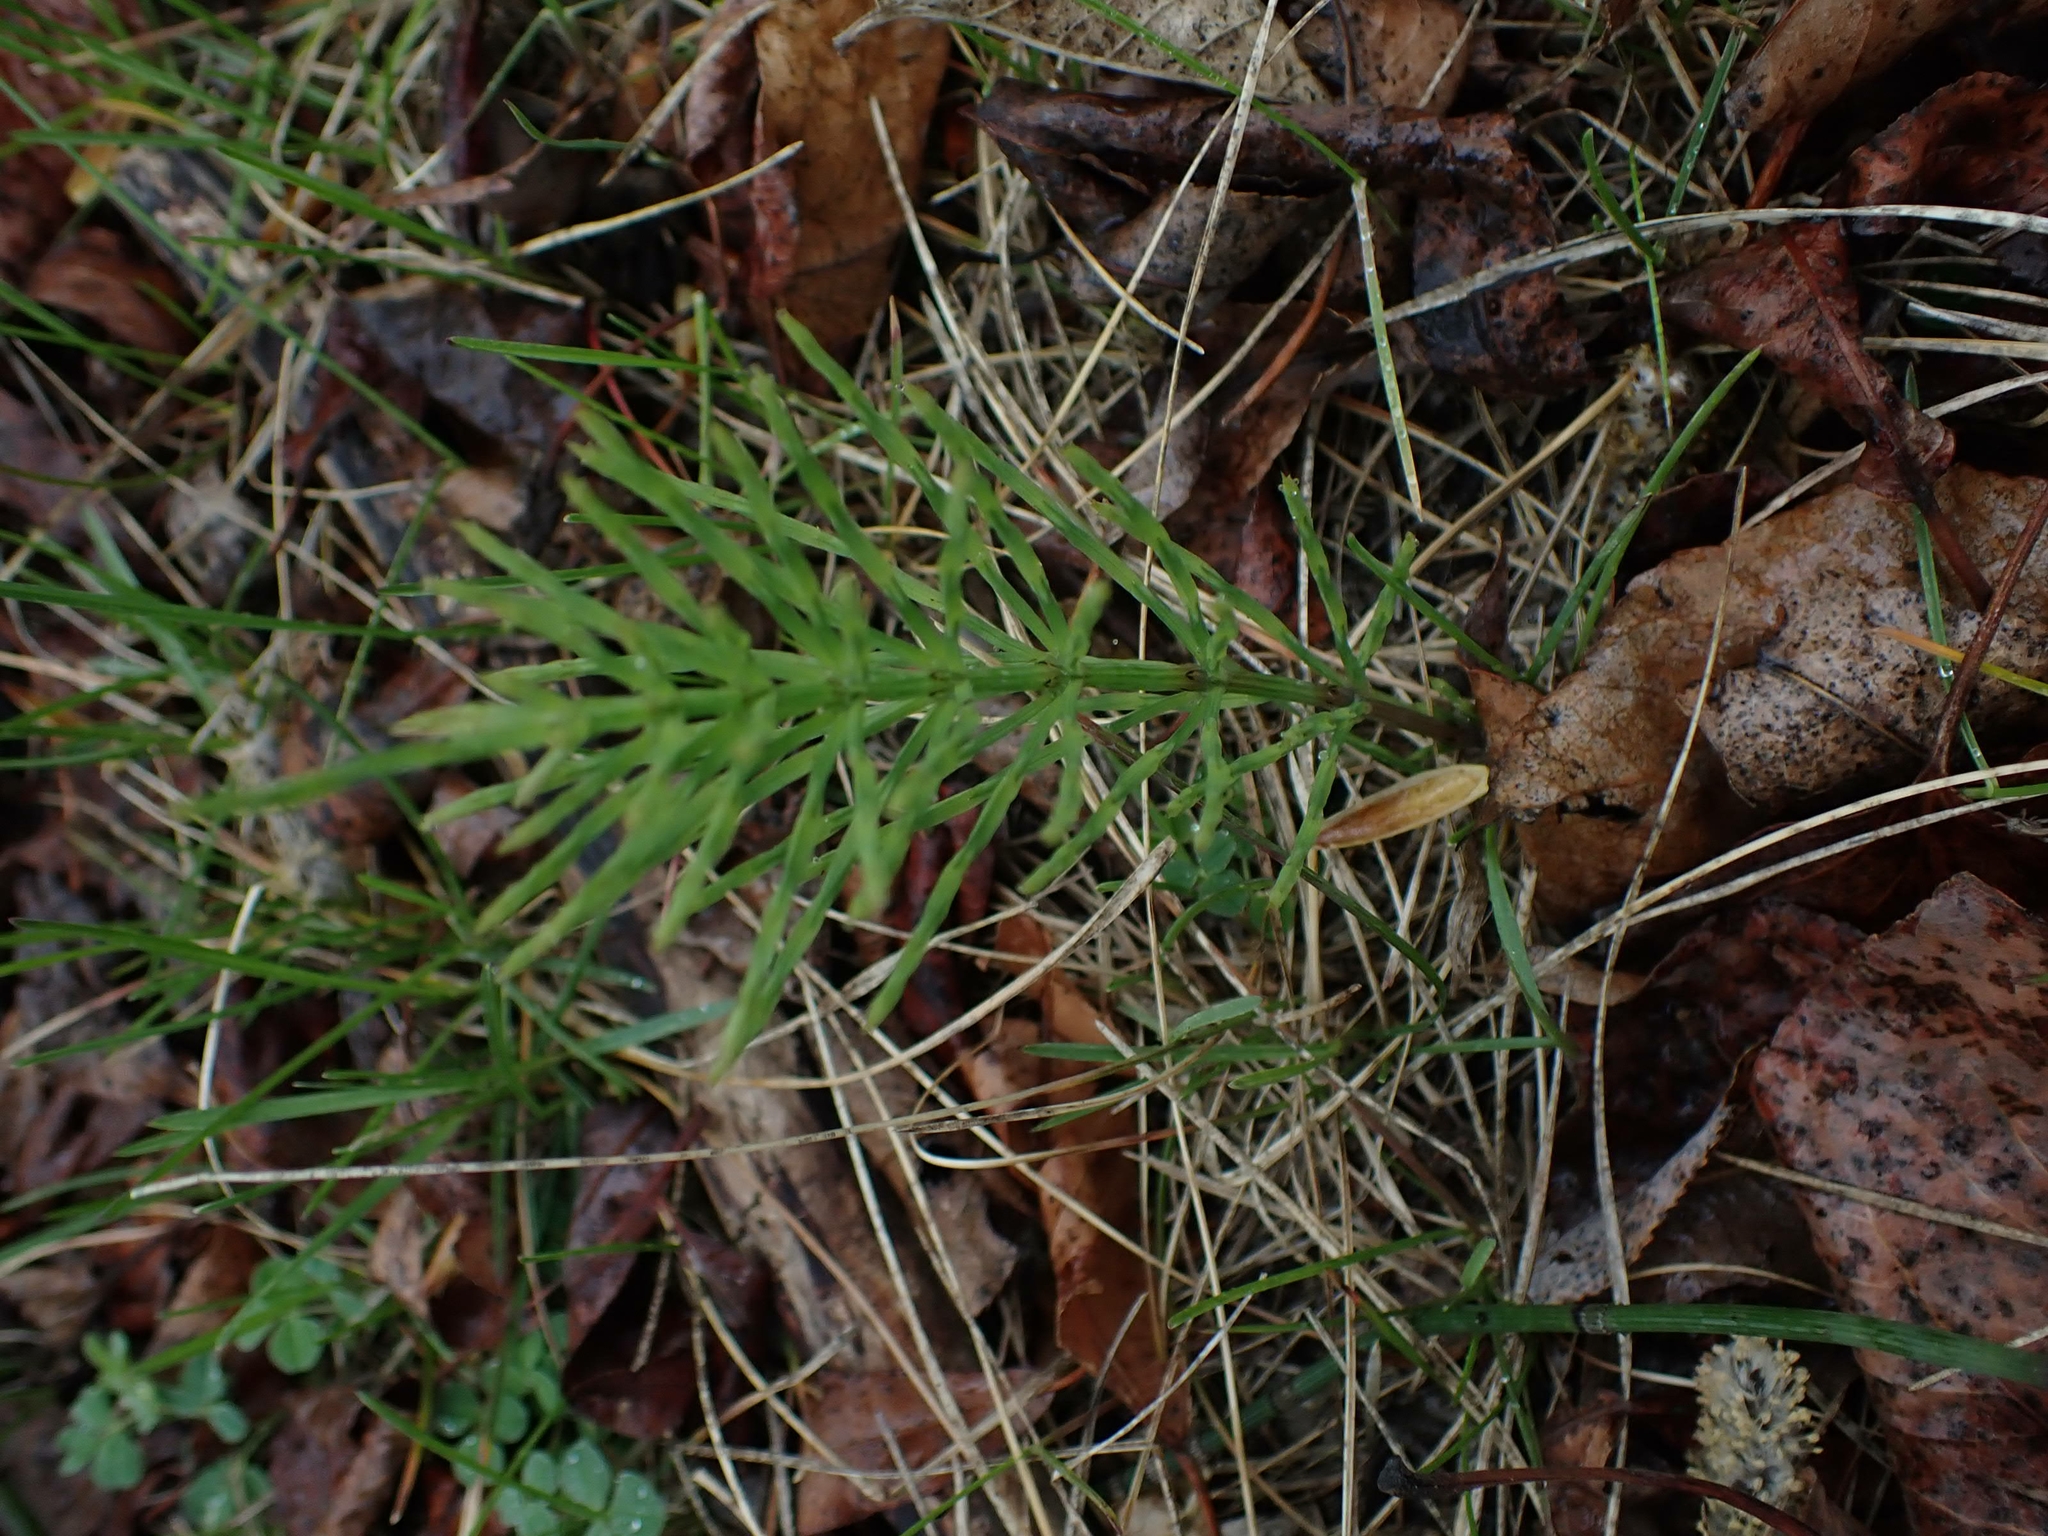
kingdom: Plantae
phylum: Tracheophyta
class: Polypodiopsida
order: Equisetales
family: Equisetaceae
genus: Equisetum
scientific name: Equisetum arvense
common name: Field horsetail
